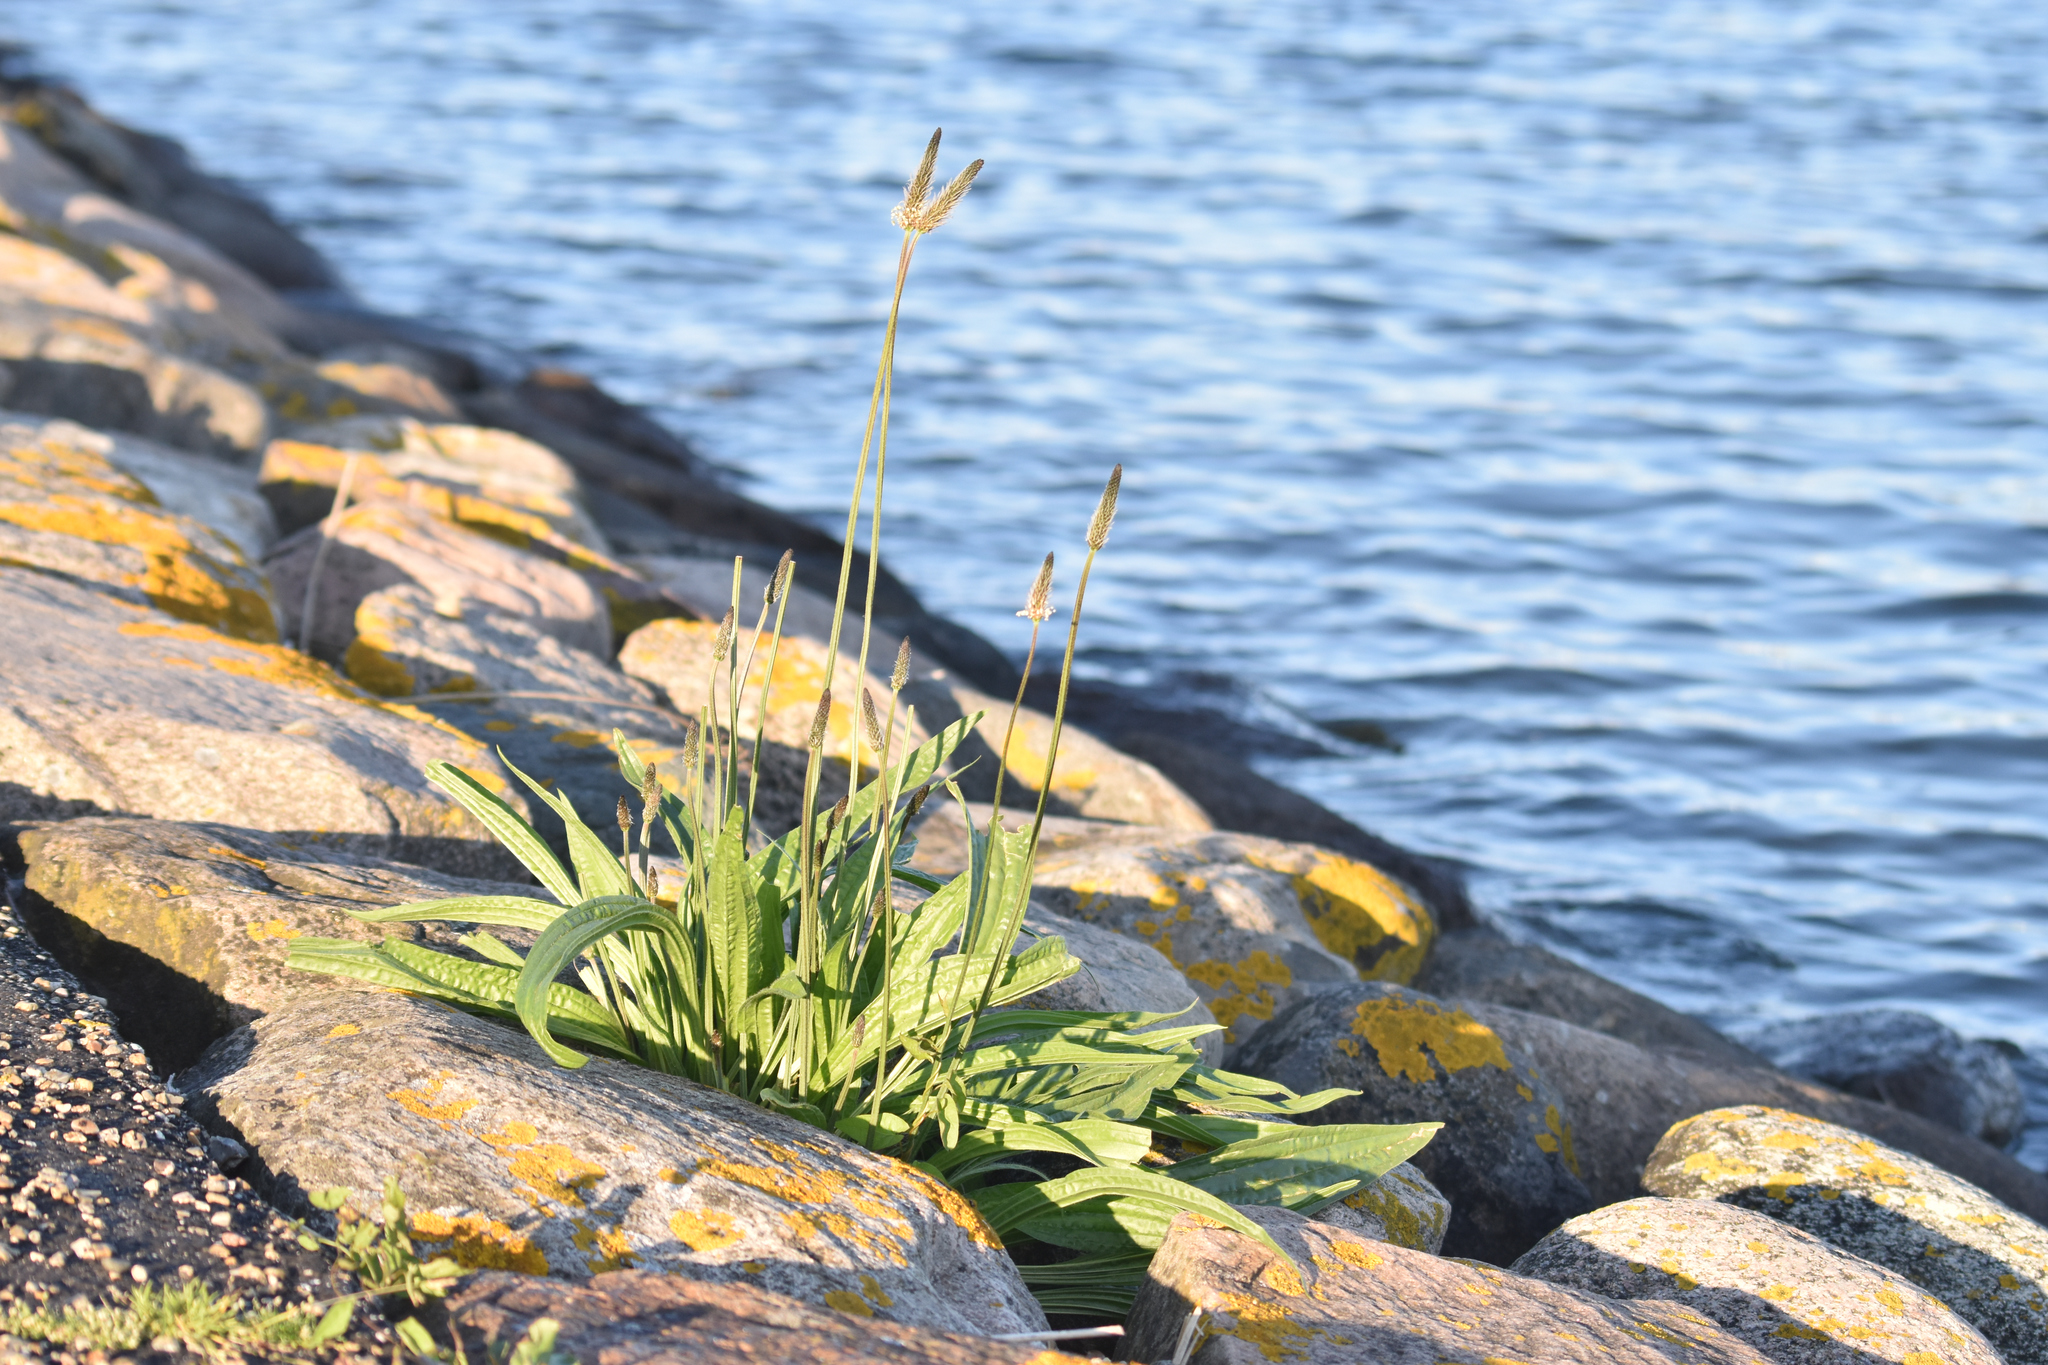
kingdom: Plantae
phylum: Tracheophyta
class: Magnoliopsida
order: Lamiales
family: Plantaginaceae
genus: Plantago
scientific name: Plantago lanceolata
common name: Ribwort plantain
